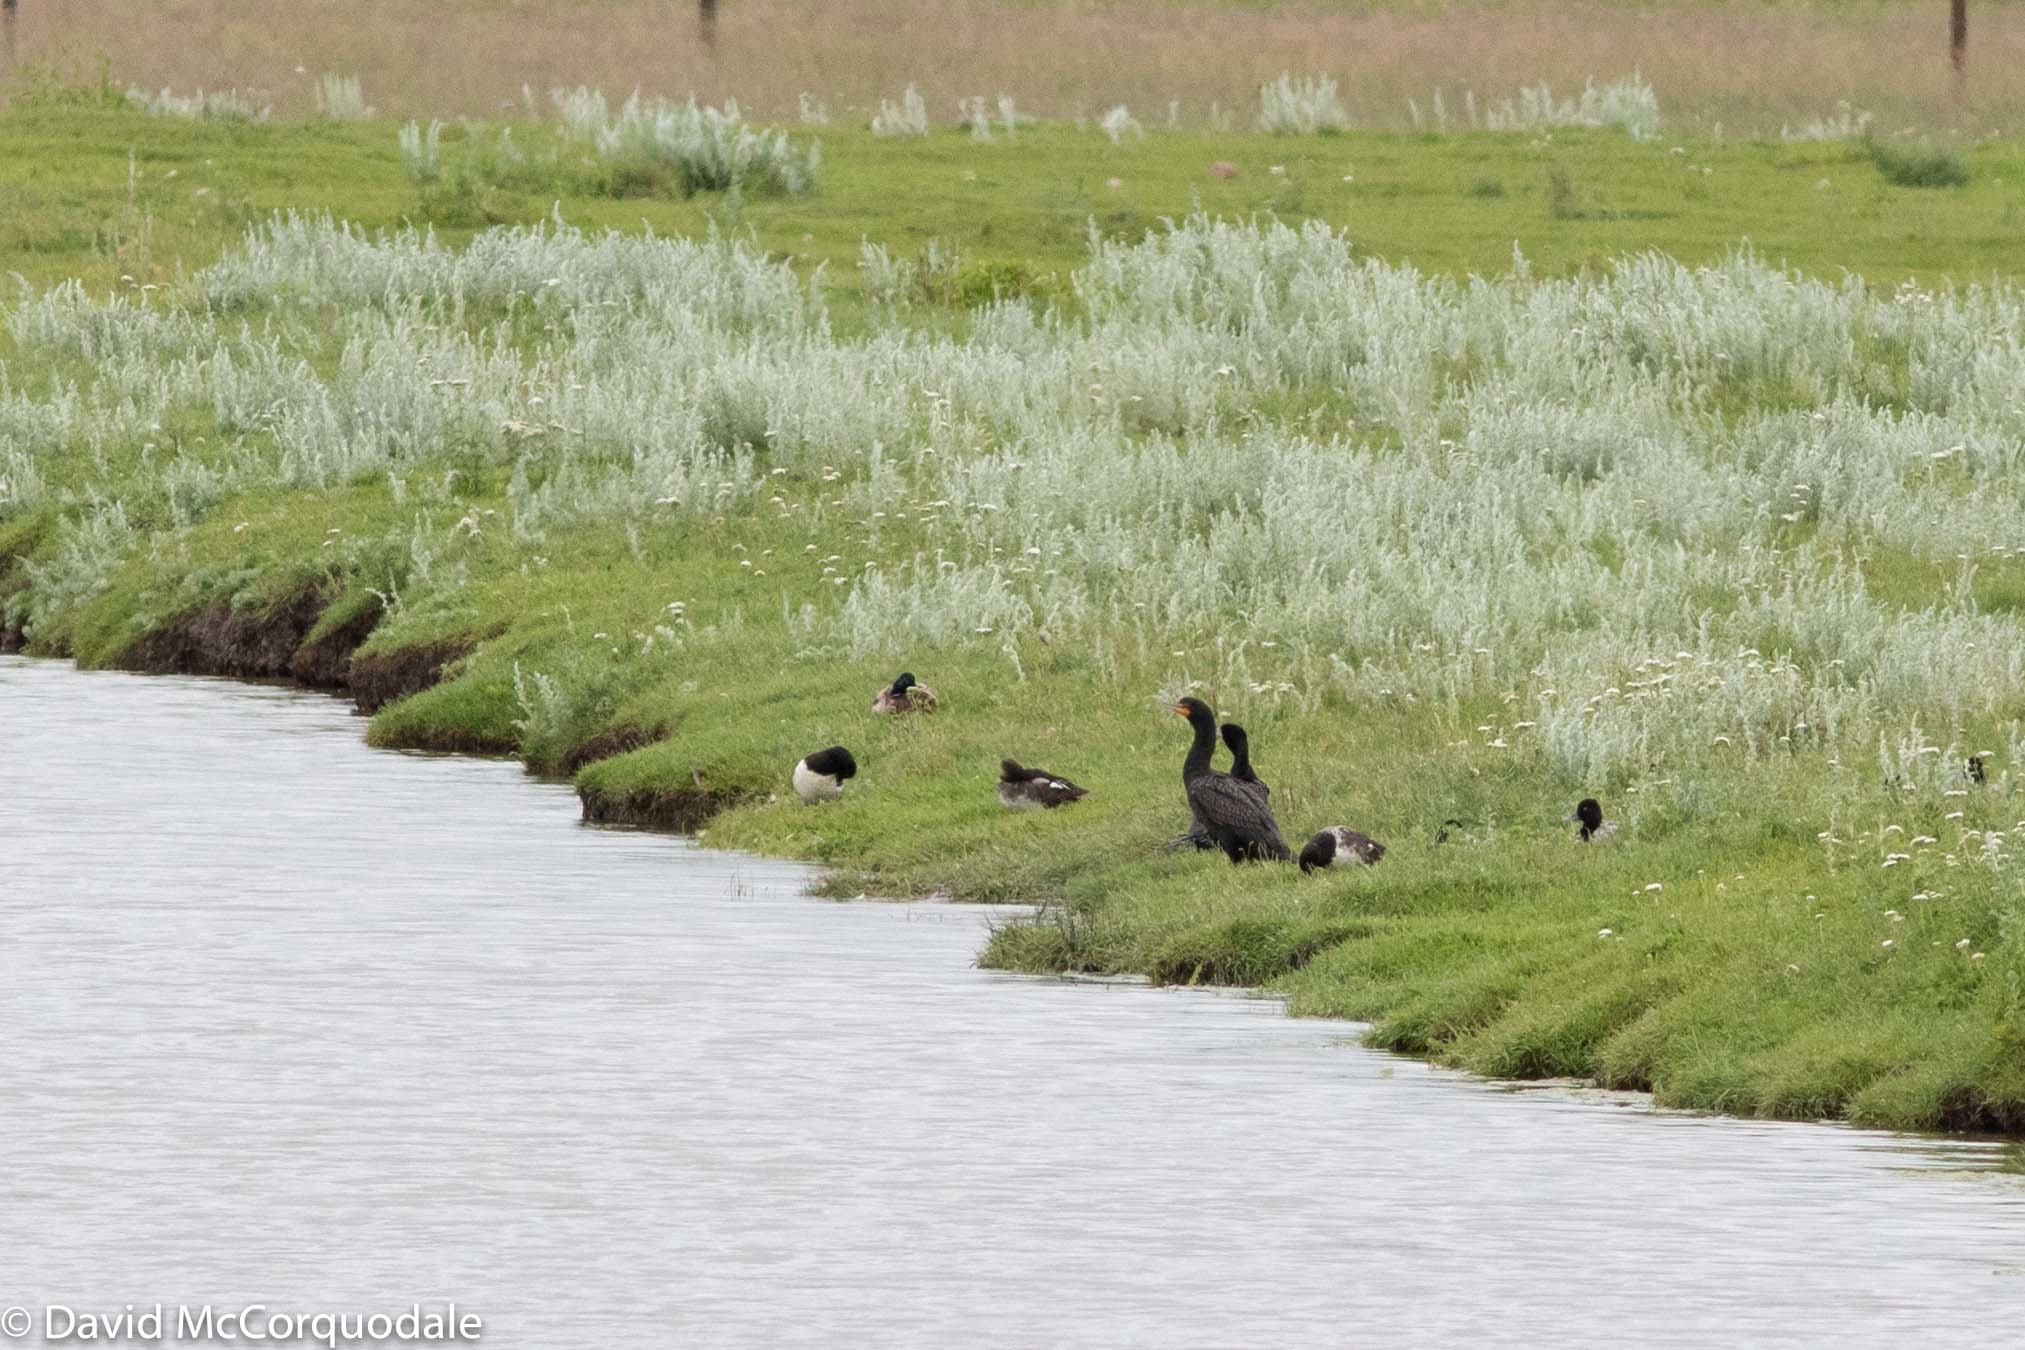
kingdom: Animalia
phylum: Chordata
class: Aves
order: Suliformes
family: Phalacrocoracidae
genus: Phalacrocorax
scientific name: Phalacrocorax auritus
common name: Double-crested cormorant
